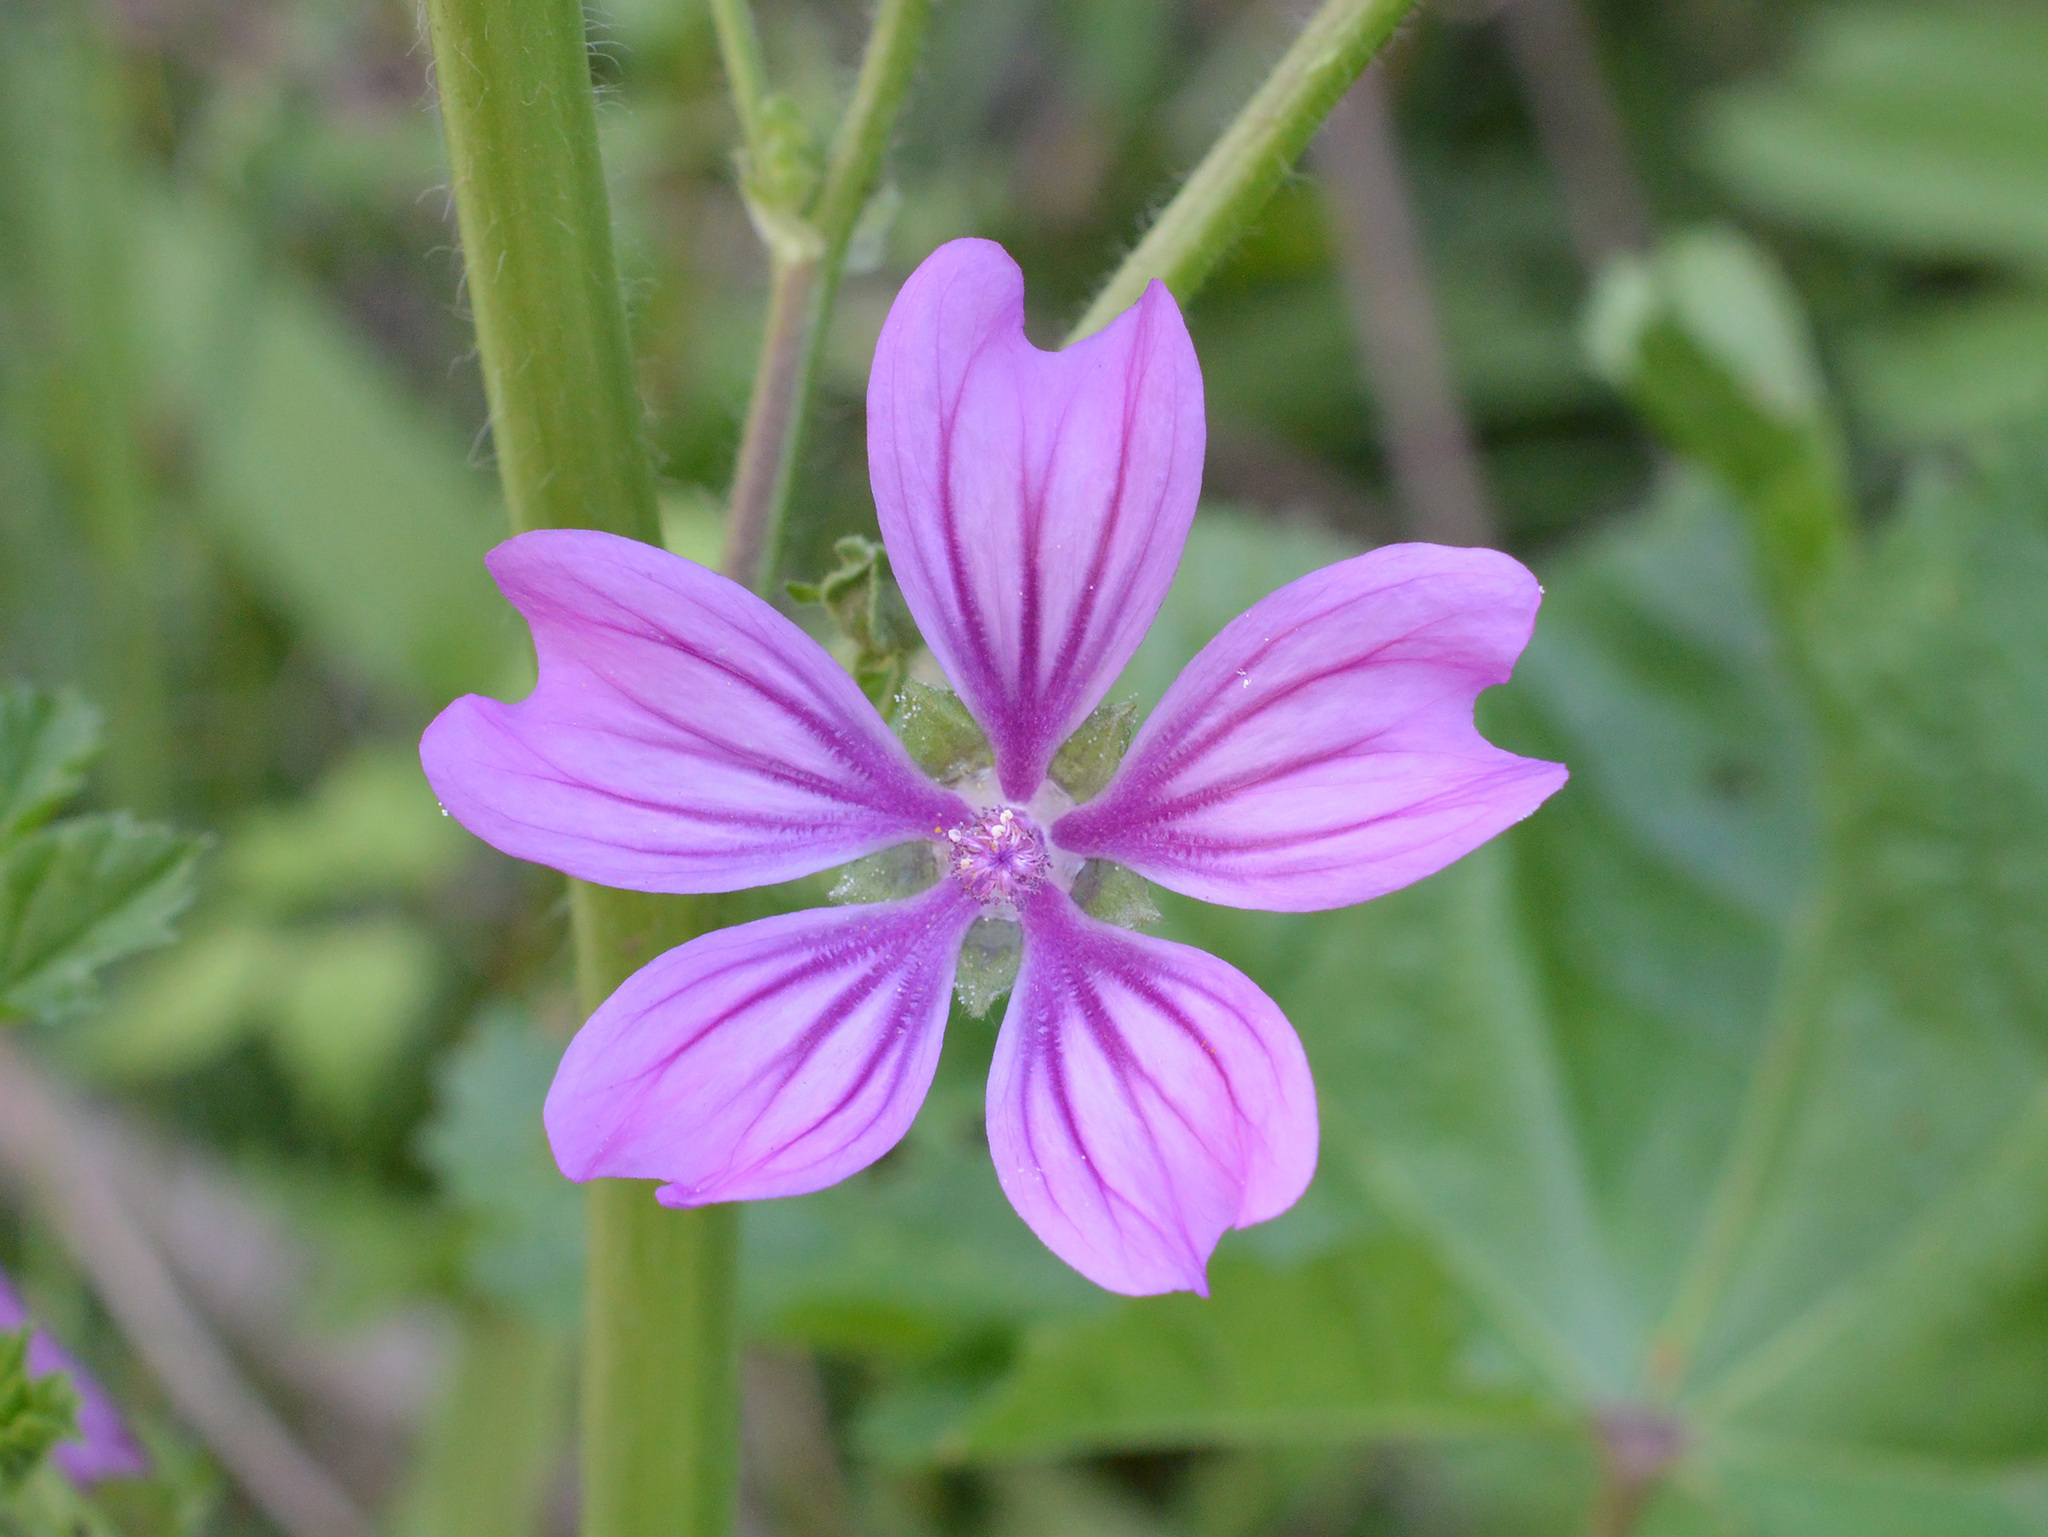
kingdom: Plantae
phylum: Tracheophyta
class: Magnoliopsida
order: Malvales
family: Malvaceae
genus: Malva
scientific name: Malva sylvestris
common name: Common mallow
